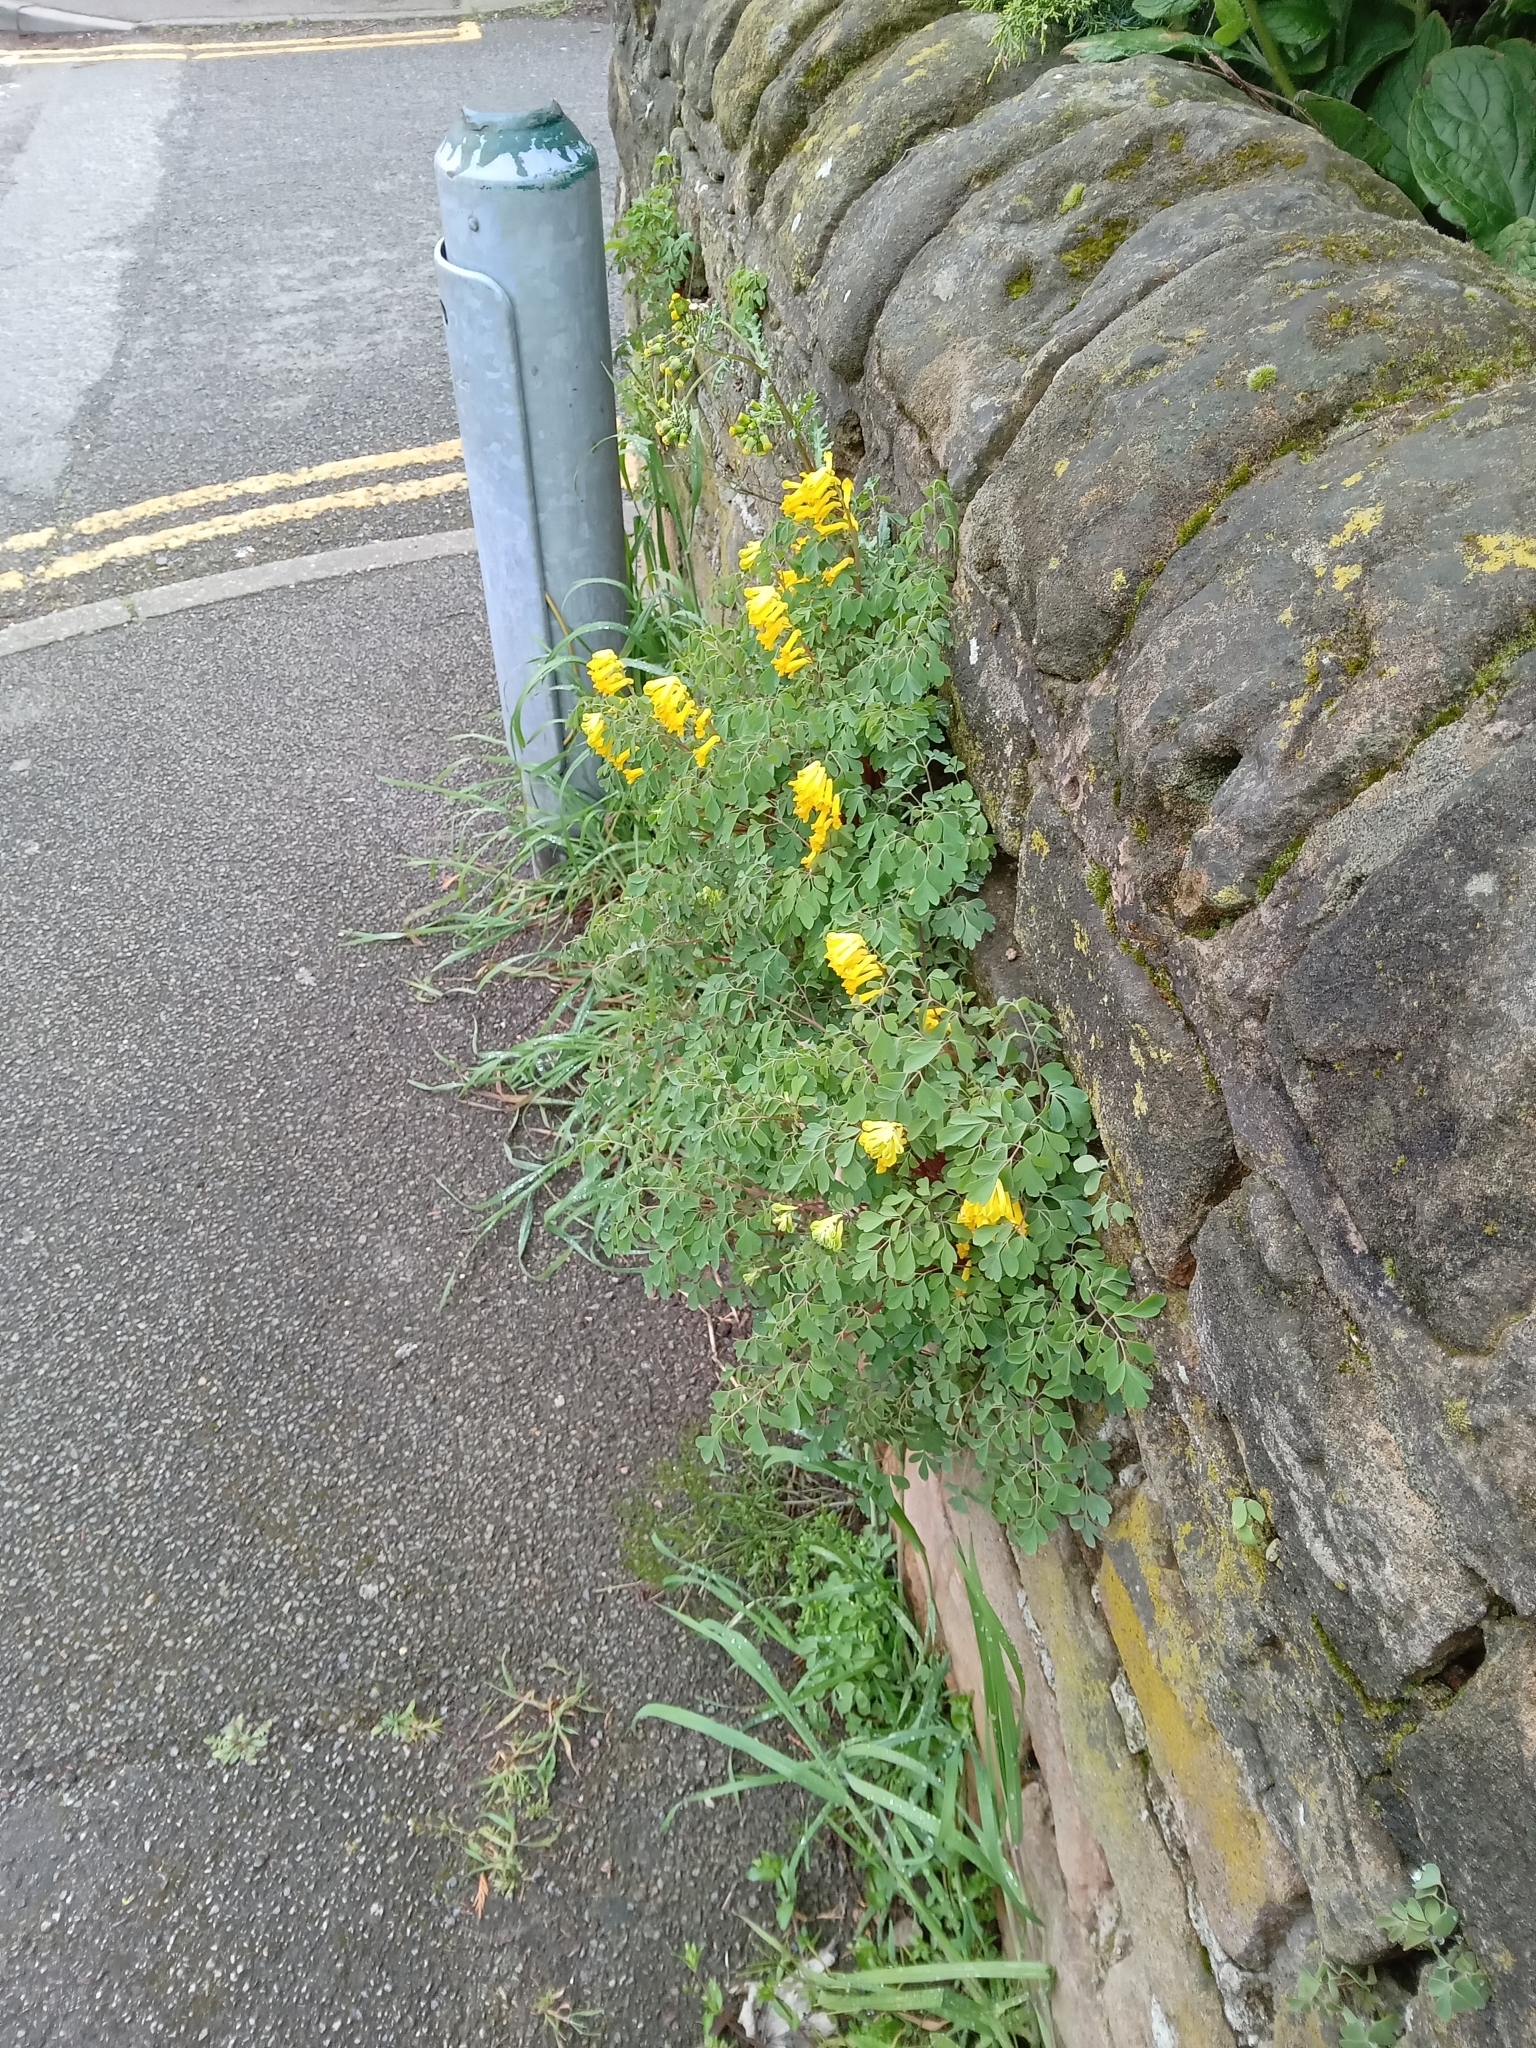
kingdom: Plantae
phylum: Tracheophyta
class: Magnoliopsida
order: Ranunculales
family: Papaveraceae
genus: Pseudofumaria
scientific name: Pseudofumaria lutea
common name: Yellow corydalis
